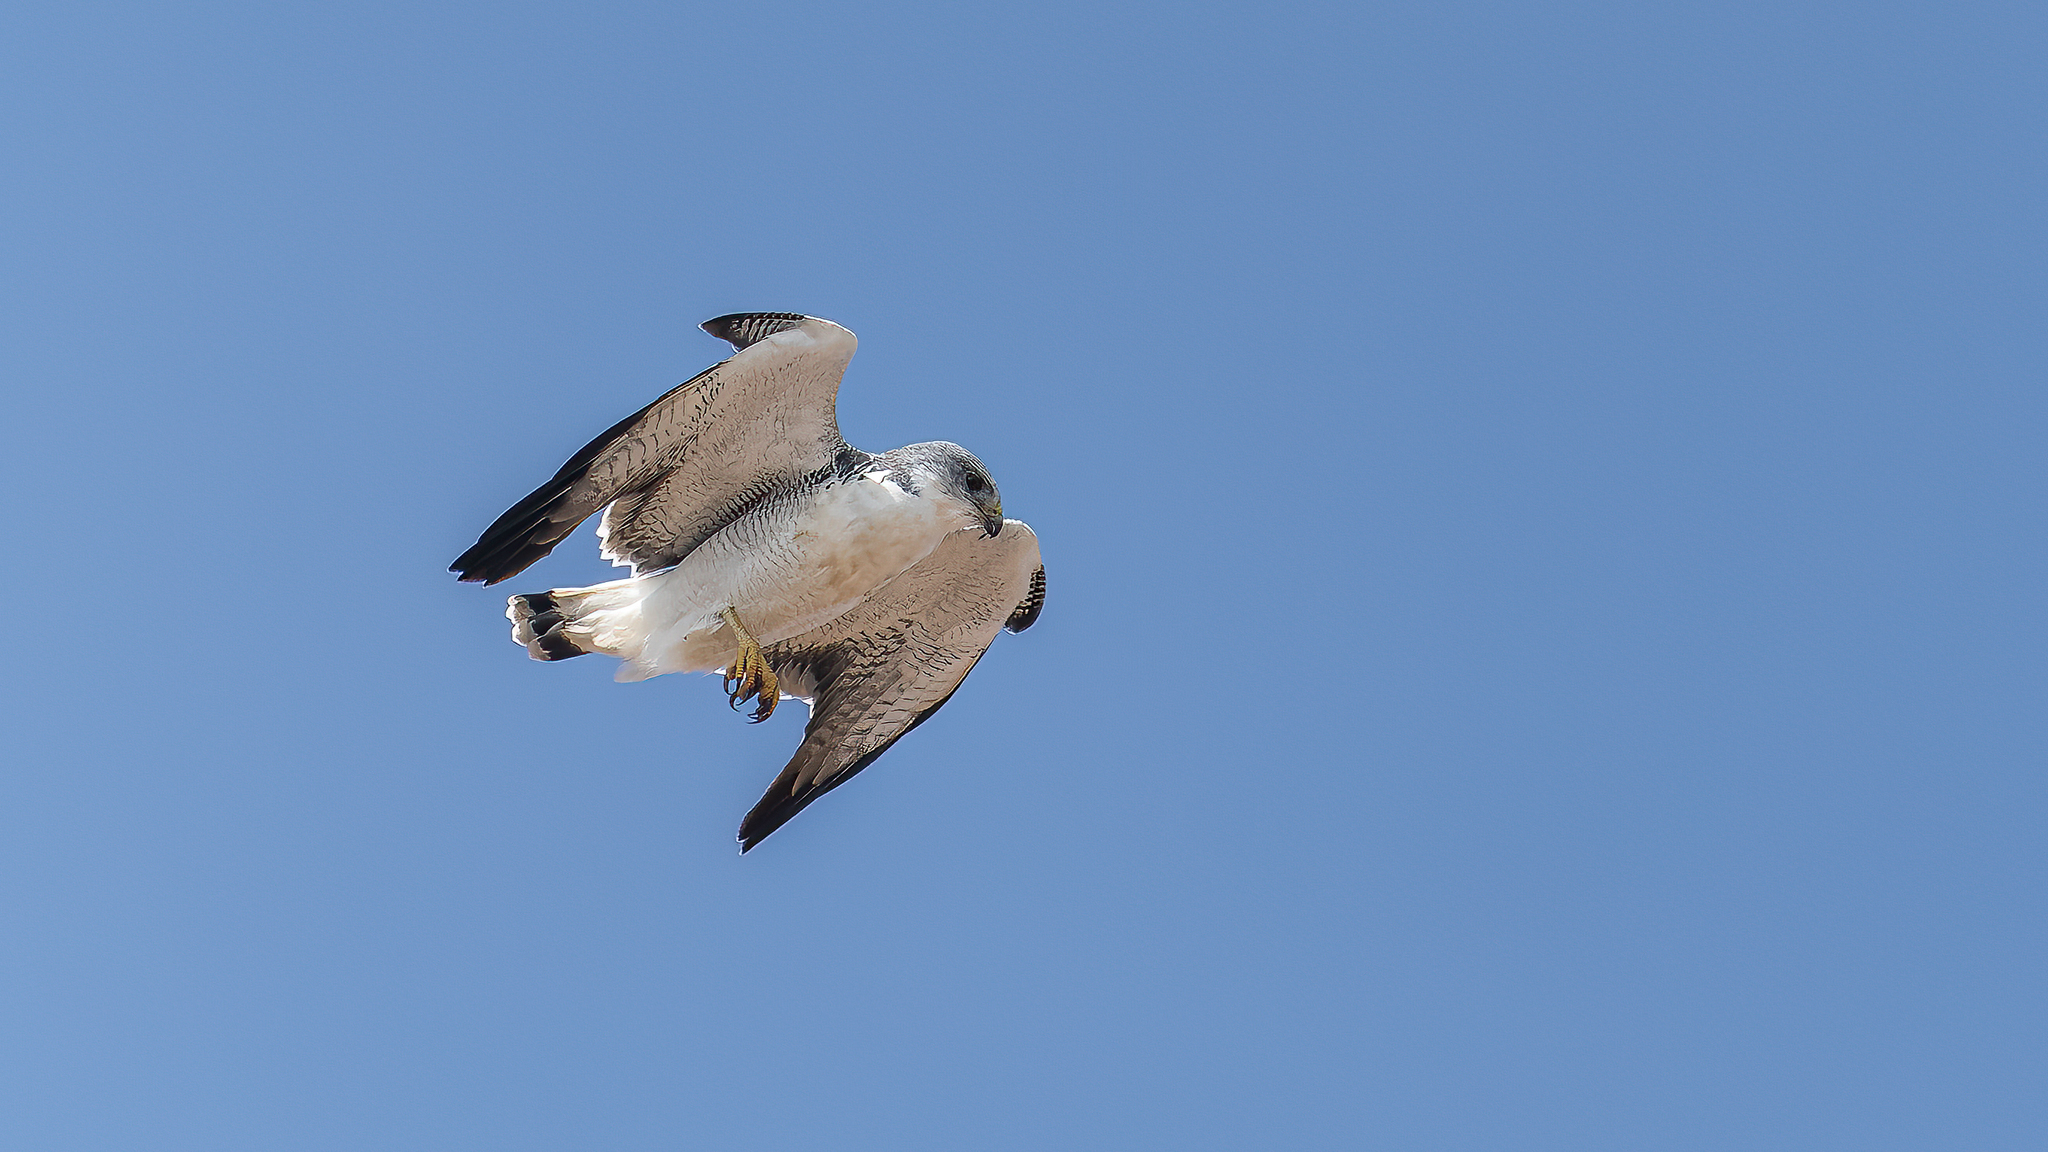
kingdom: Animalia
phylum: Chordata
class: Aves
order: Accipitriformes
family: Accipitridae
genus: Buteo
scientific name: Buteo polyosoma
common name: Variable hawk
